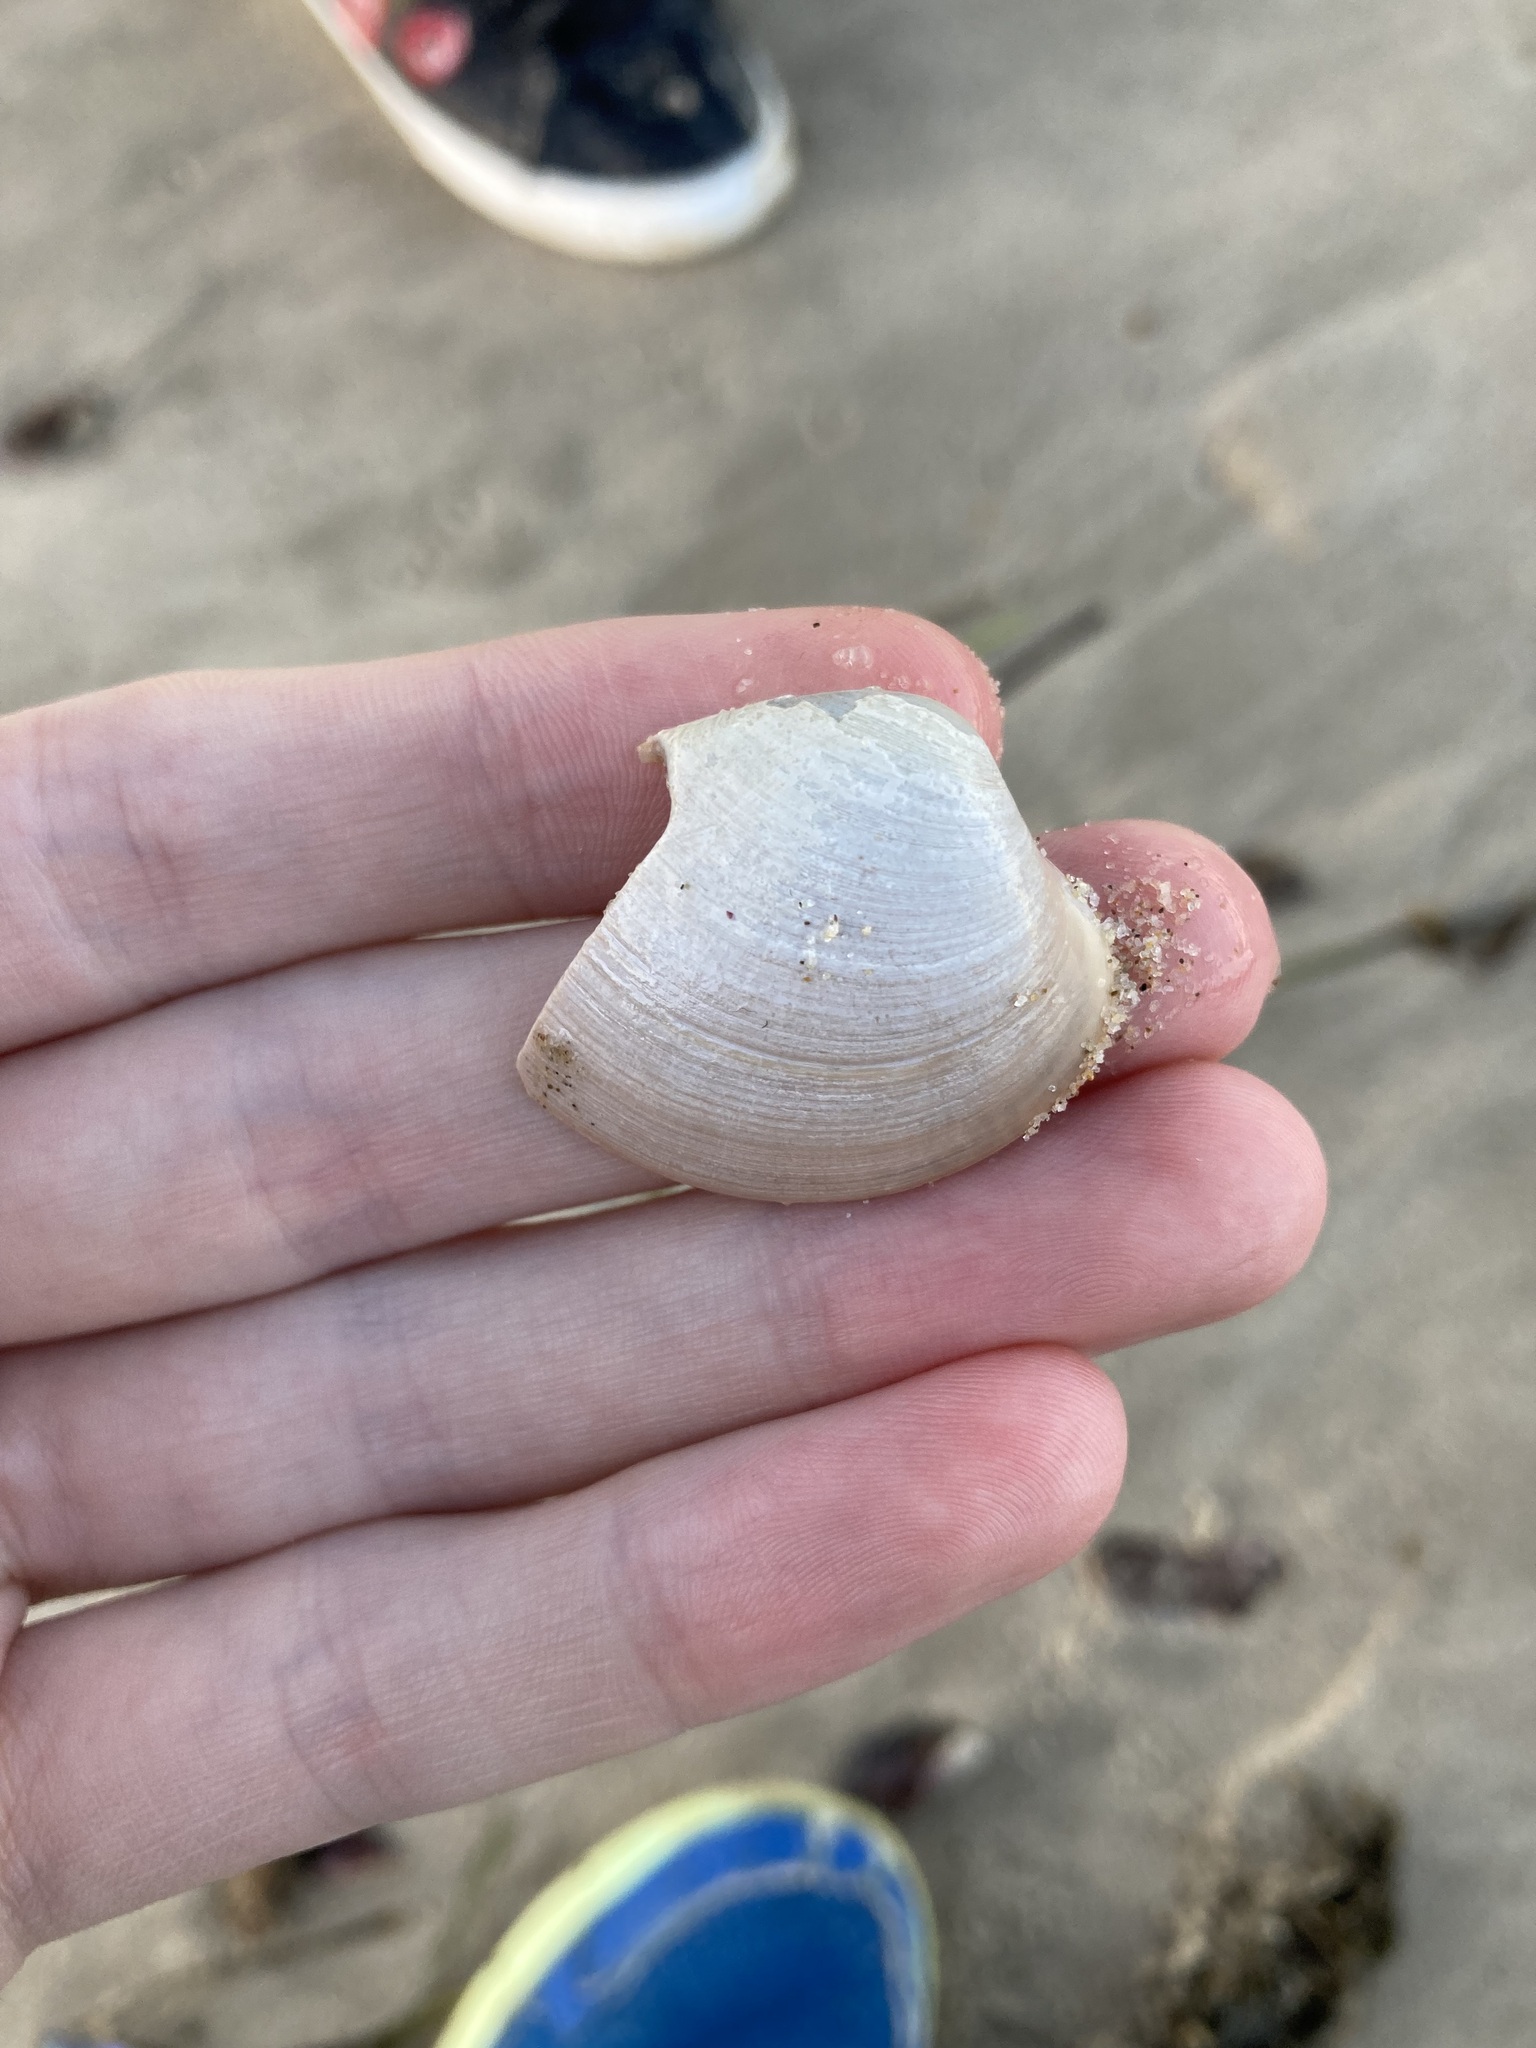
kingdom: Animalia
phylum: Mollusca
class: Bivalvia
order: Venerida
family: Veneridae
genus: Bassina
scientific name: Bassina pachyphylla
